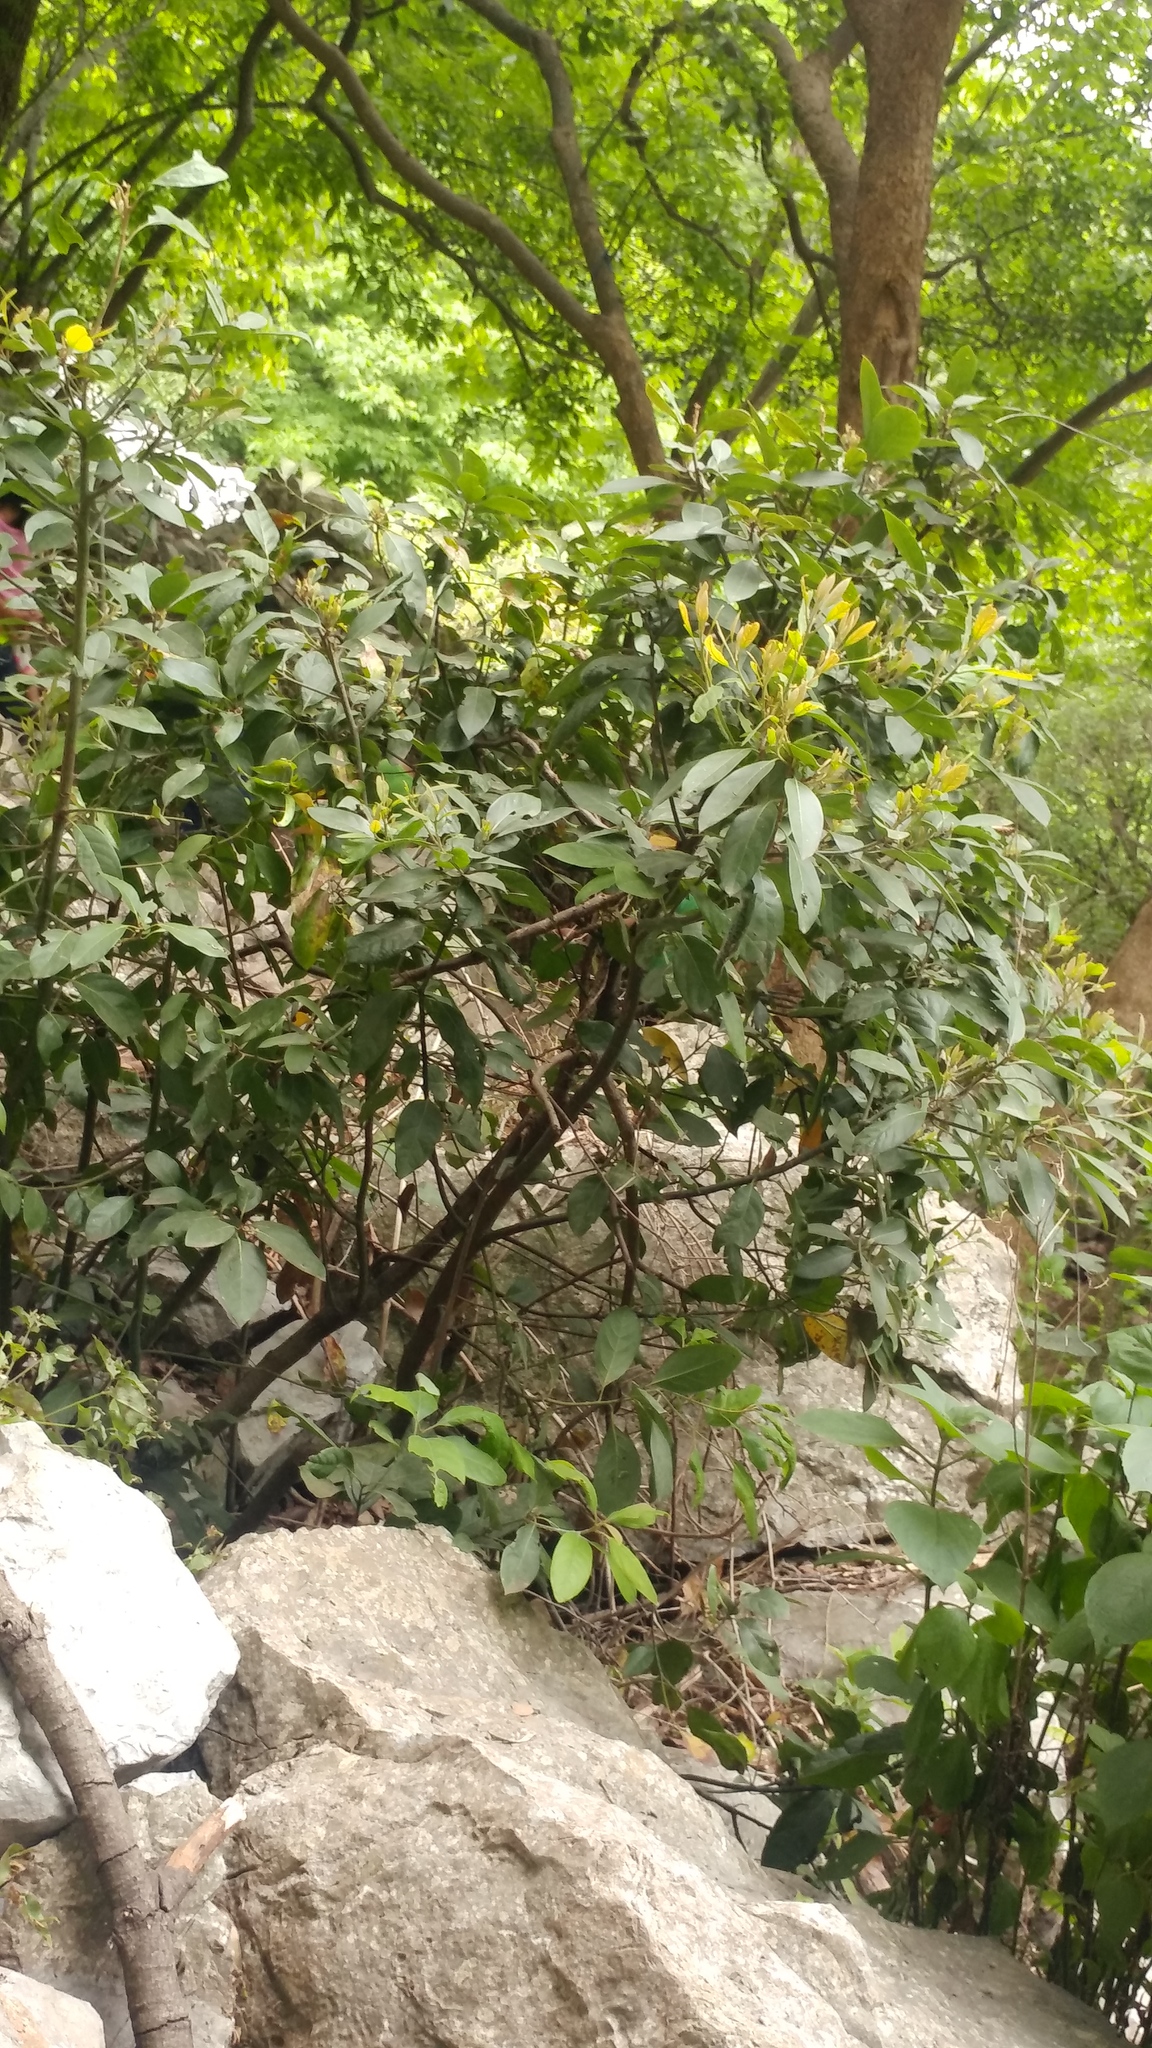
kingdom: Plantae
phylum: Tracheophyta
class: Magnoliopsida
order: Laurales
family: Lauraceae
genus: Persea
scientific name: Persea borbonia
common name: Redbay
